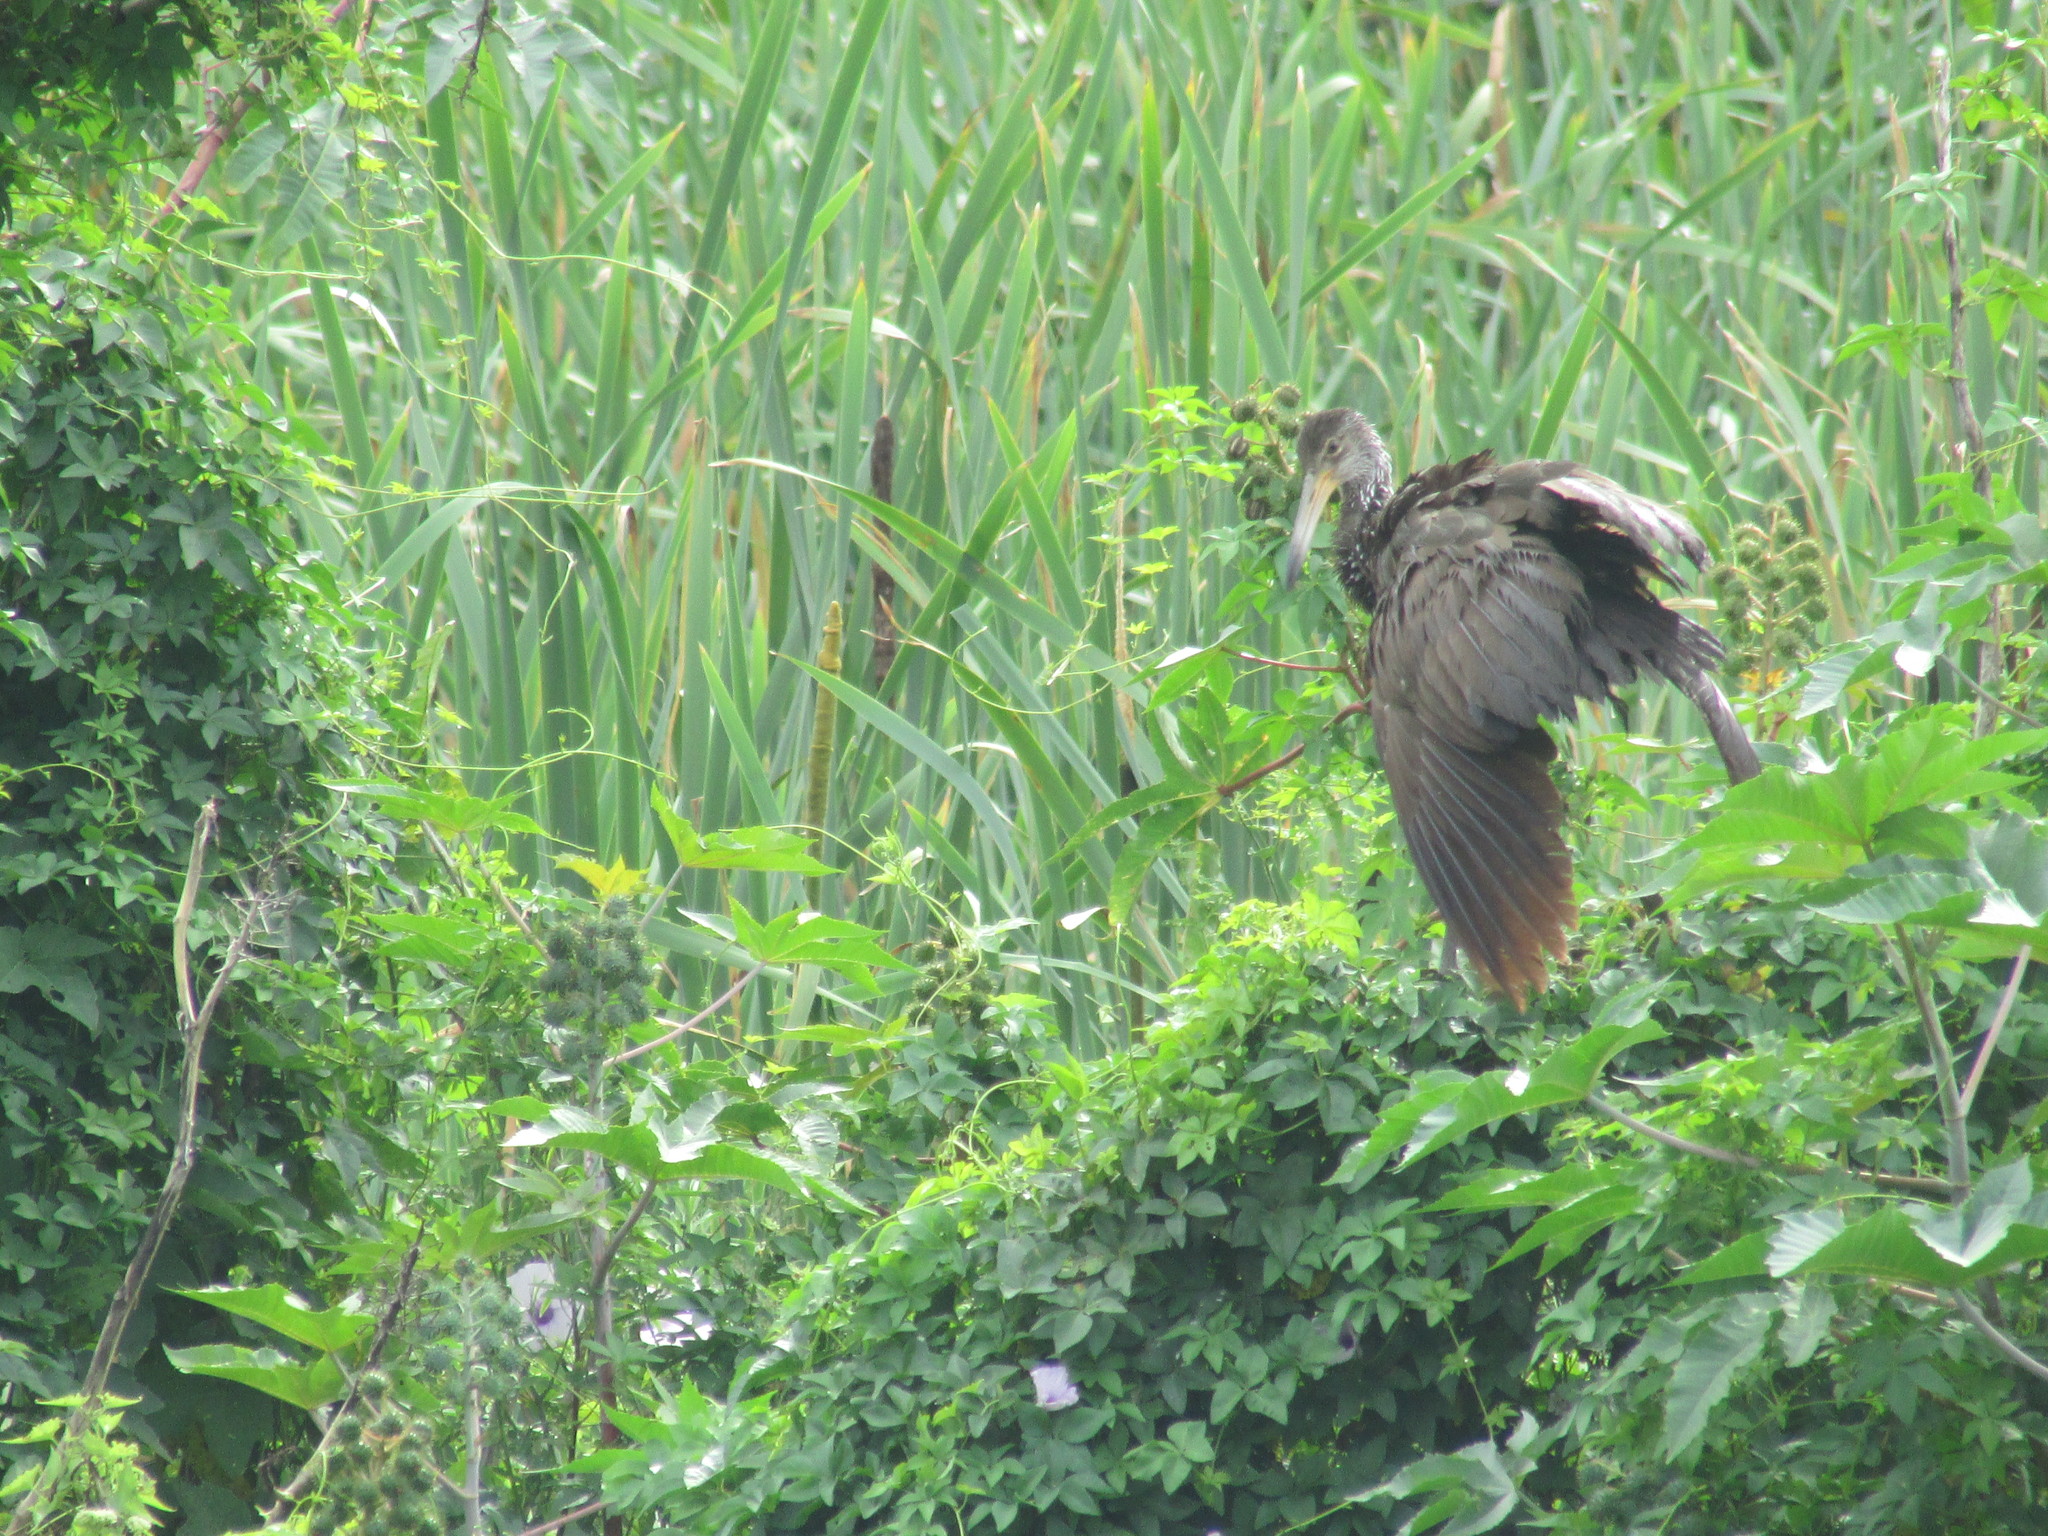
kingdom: Animalia
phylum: Chordata
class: Aves
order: Gruiformes
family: Aramidae
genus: Aramus
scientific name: Aramus guarauna
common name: Limpkin
